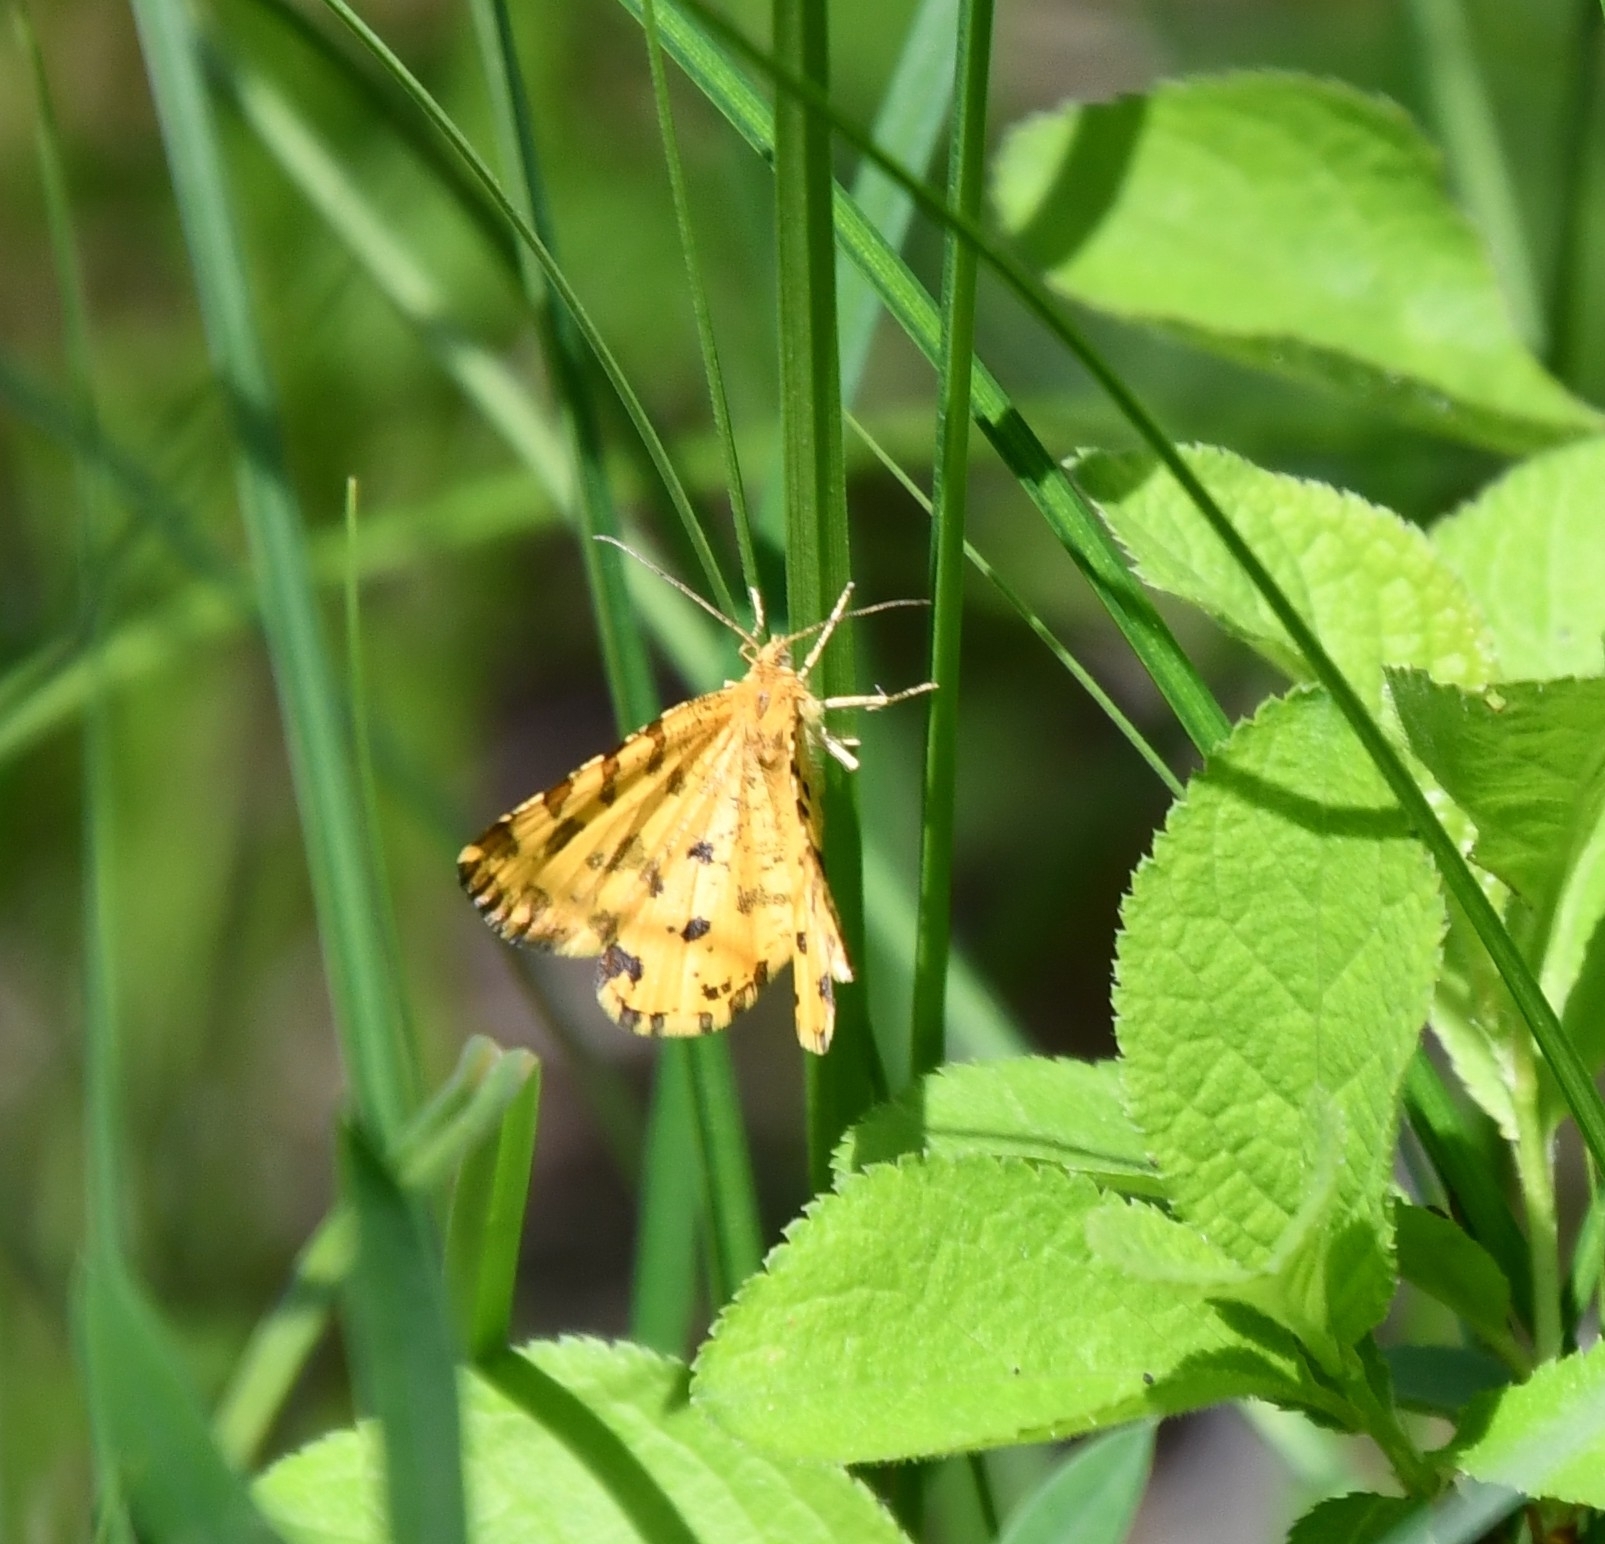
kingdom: Animalia
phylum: Arthropoda
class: Insecta
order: Lepidoptera
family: Geometridae
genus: Pseudopanthera
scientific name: Pseudopanthera macularia
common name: Speckled yellow
